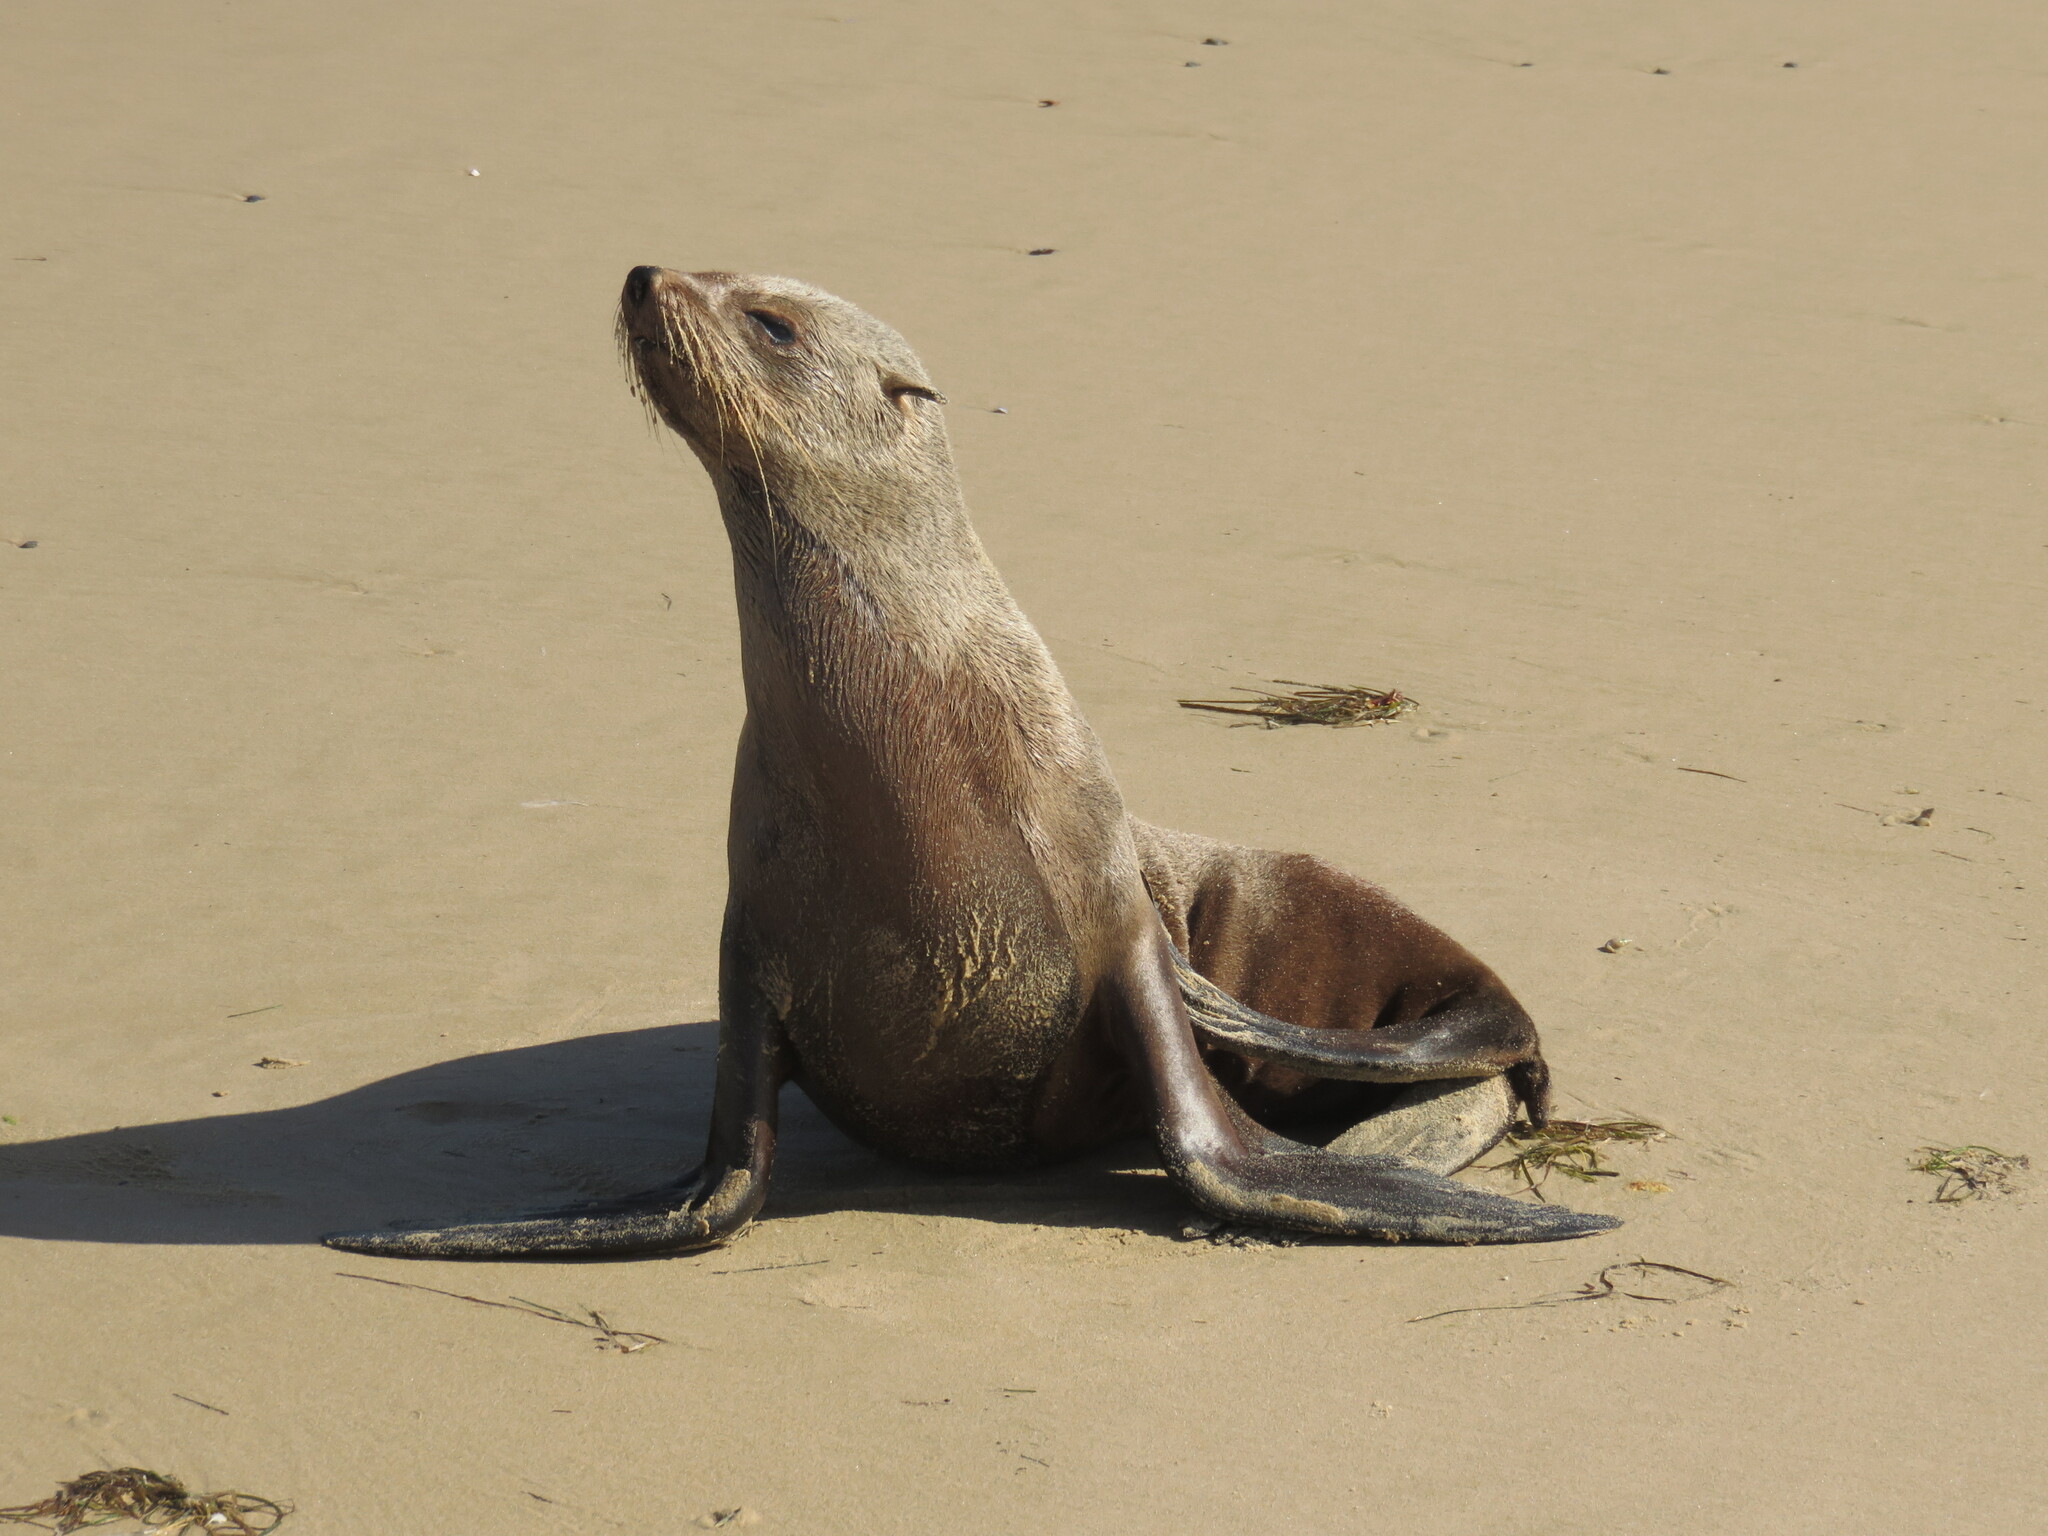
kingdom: Animalia
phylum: Chordata
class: Mammalia
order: Carnivora
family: Otariidae
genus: Arctocephalus
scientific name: Arctocephalus pusillus
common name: Brown fur seal
